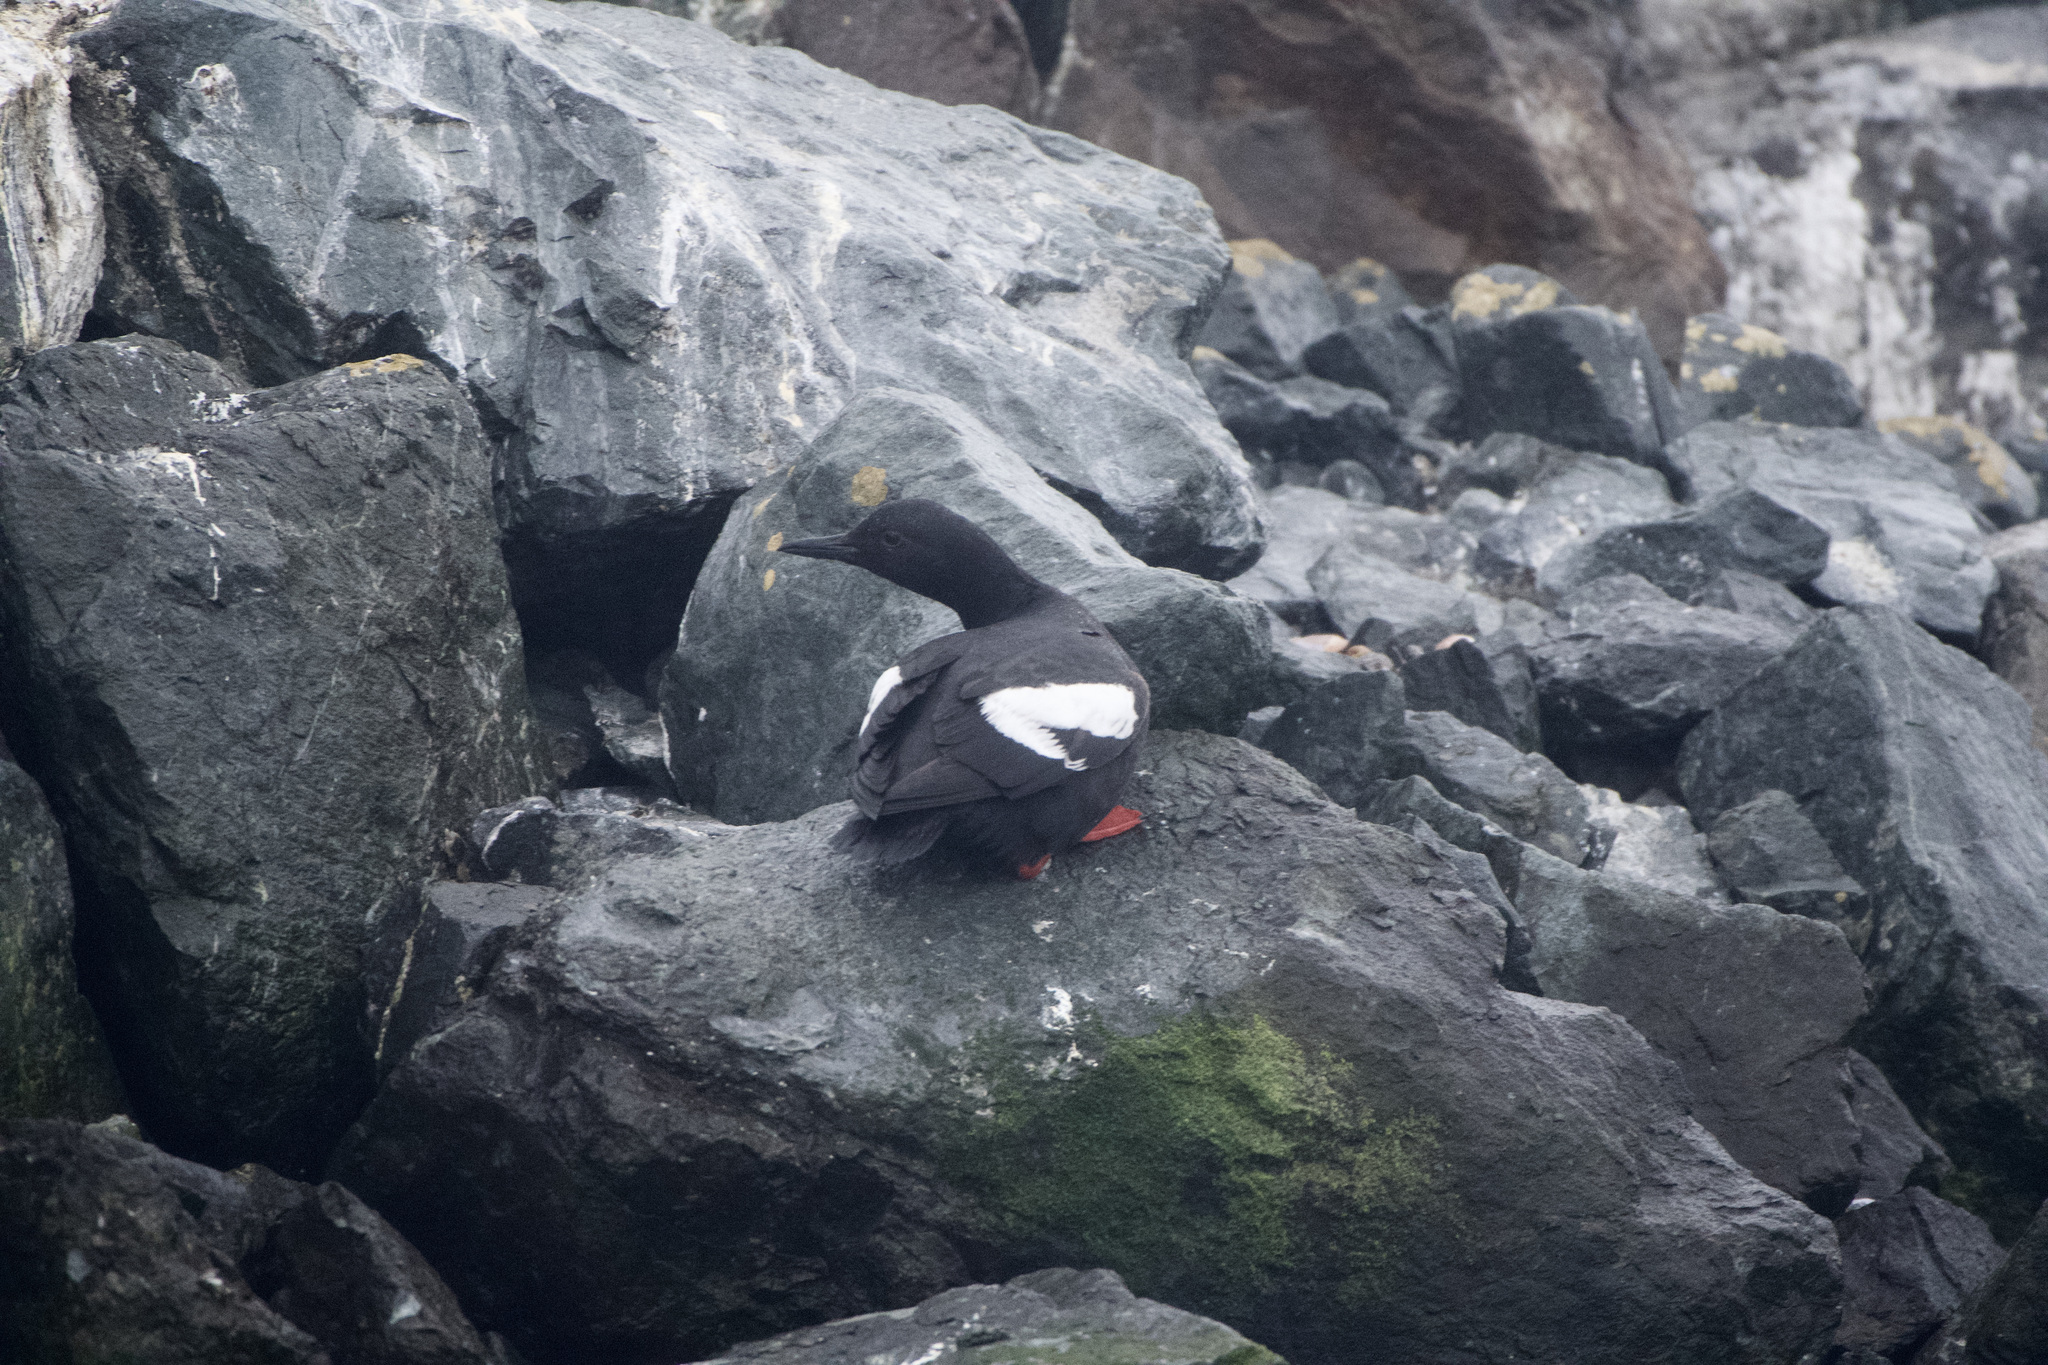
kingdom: Animalia
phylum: Chordata
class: Aves
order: Charadriiformes
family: Alcidae
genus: Cepphus
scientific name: Cepphus columba
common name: Pigeon guillemot
